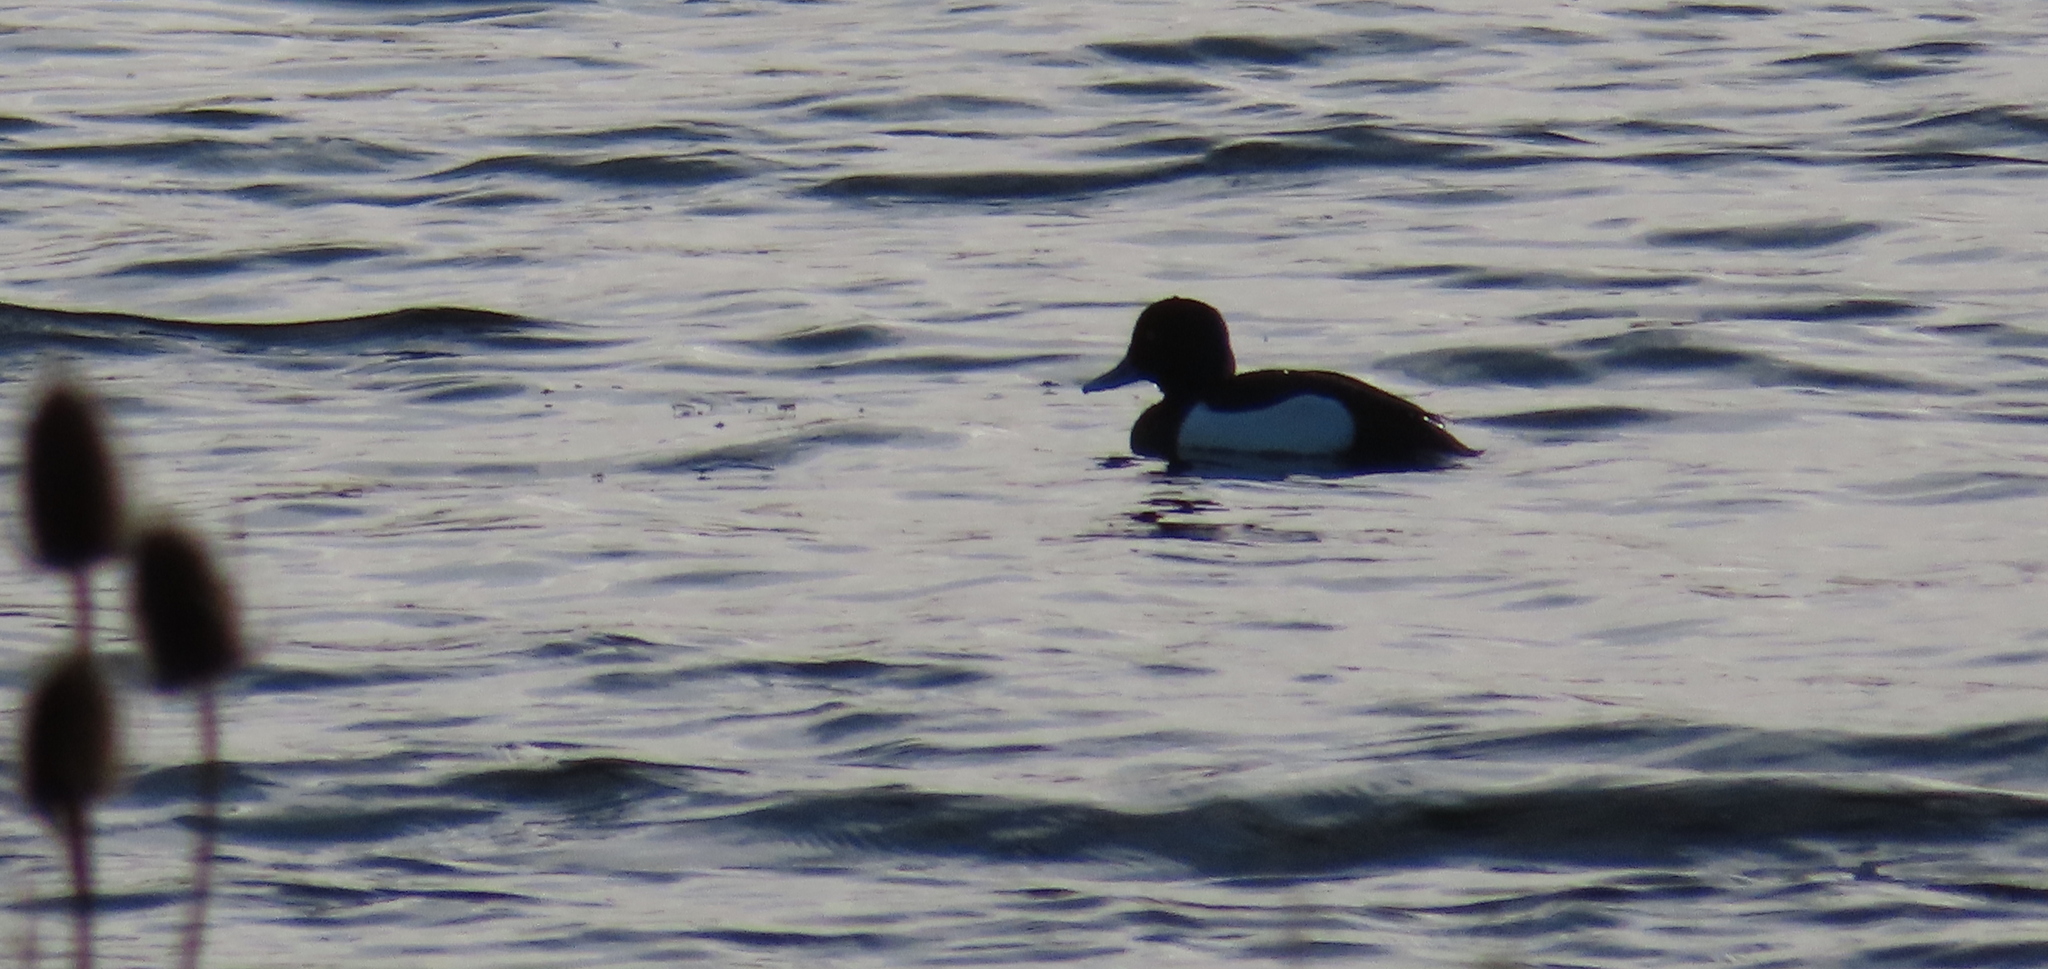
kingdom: Animalia
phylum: Chordata
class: Aves
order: Anseriformes
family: Anatidae
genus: Aythya
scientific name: Aythya fuligula
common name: Tufted duck
